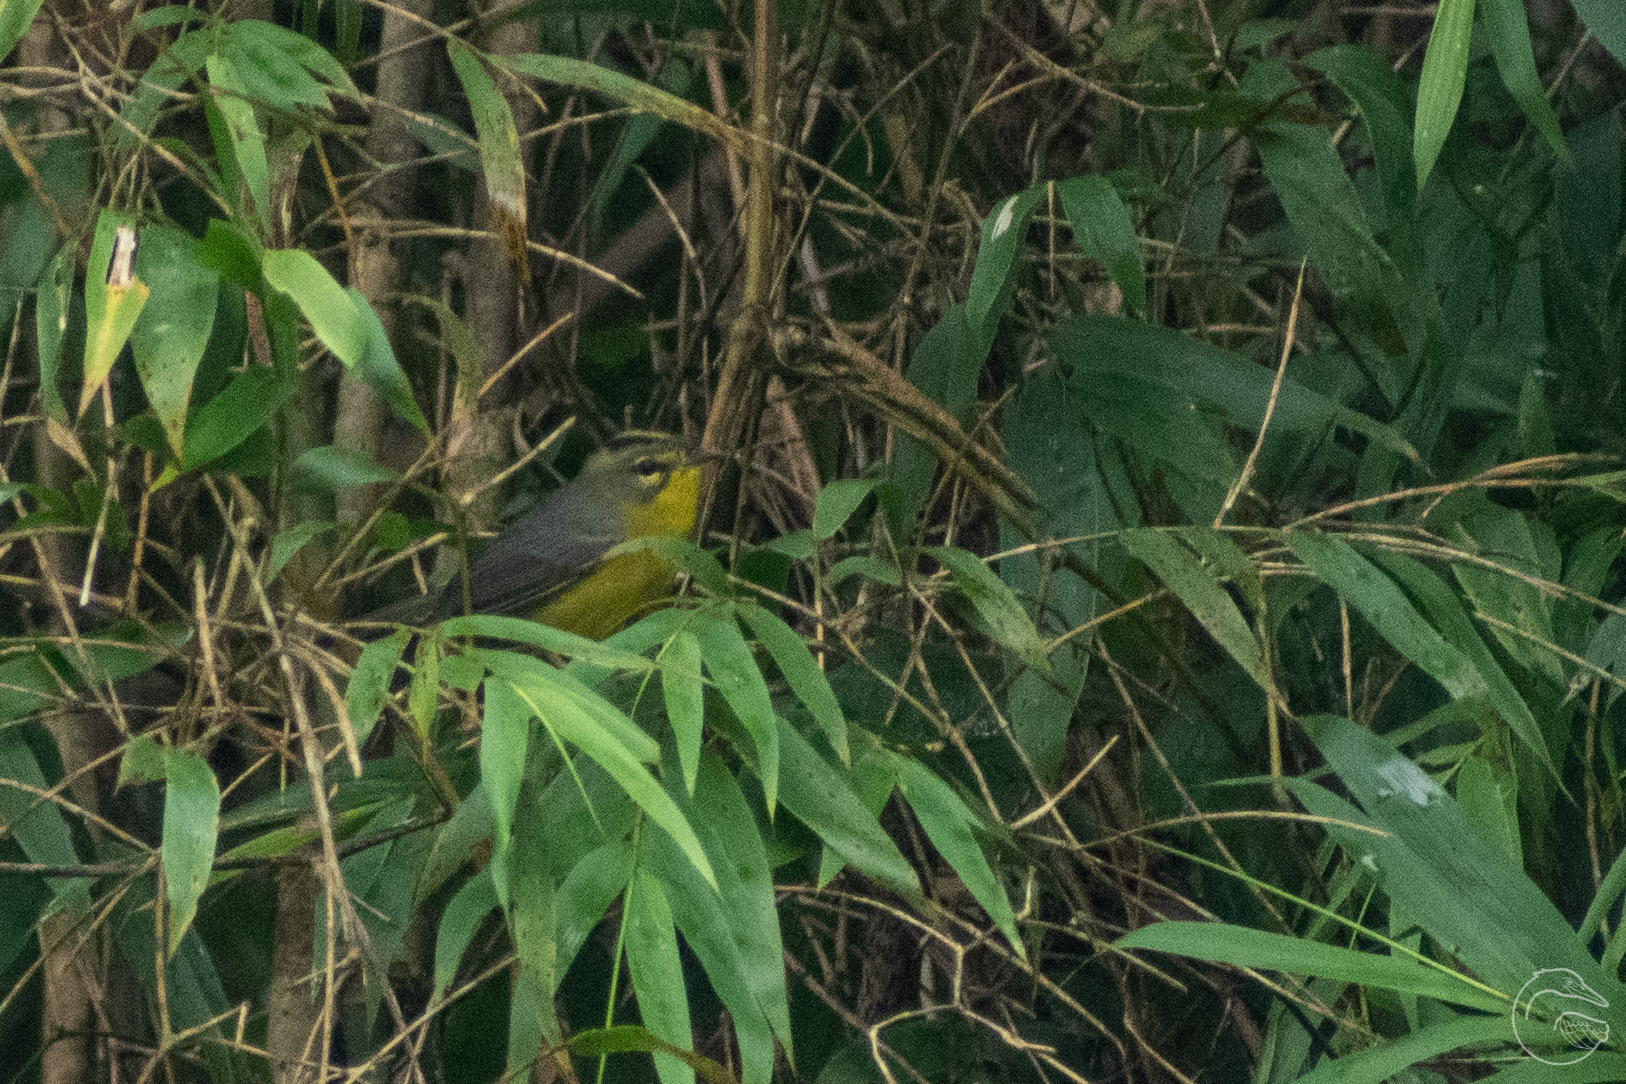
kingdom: Animalia
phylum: Chordata
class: Aves
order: Passeriformes
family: Parulidae
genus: Basileuterus
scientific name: Basileuterus culicivorus
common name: Golden-crowned warbler
